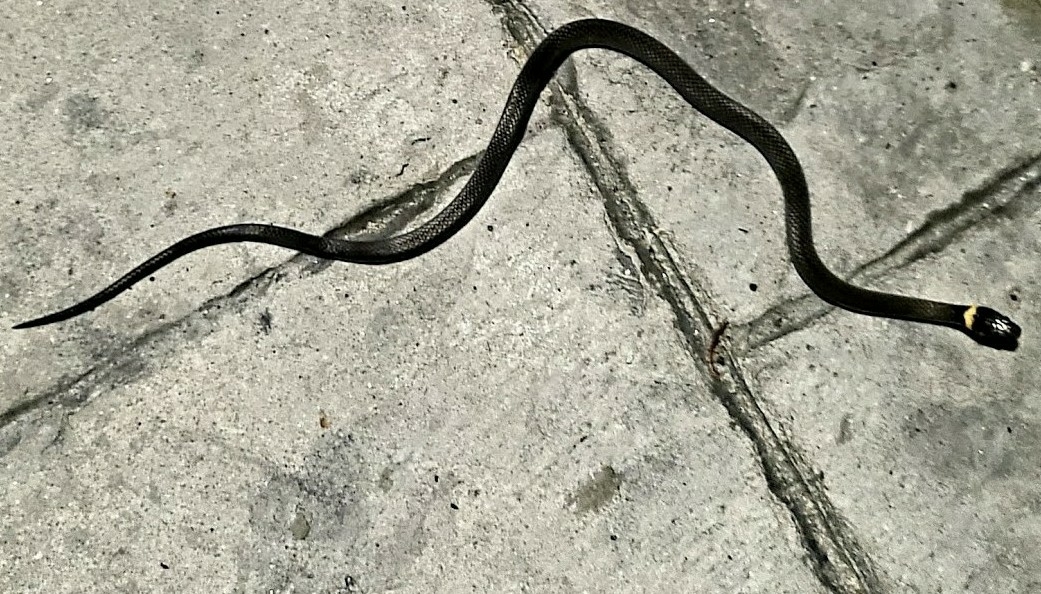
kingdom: Animalia
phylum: Chordata
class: Squamata
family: Colubridae
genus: Diadophis
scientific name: Diadophis punctatus
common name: Ringneck snake
